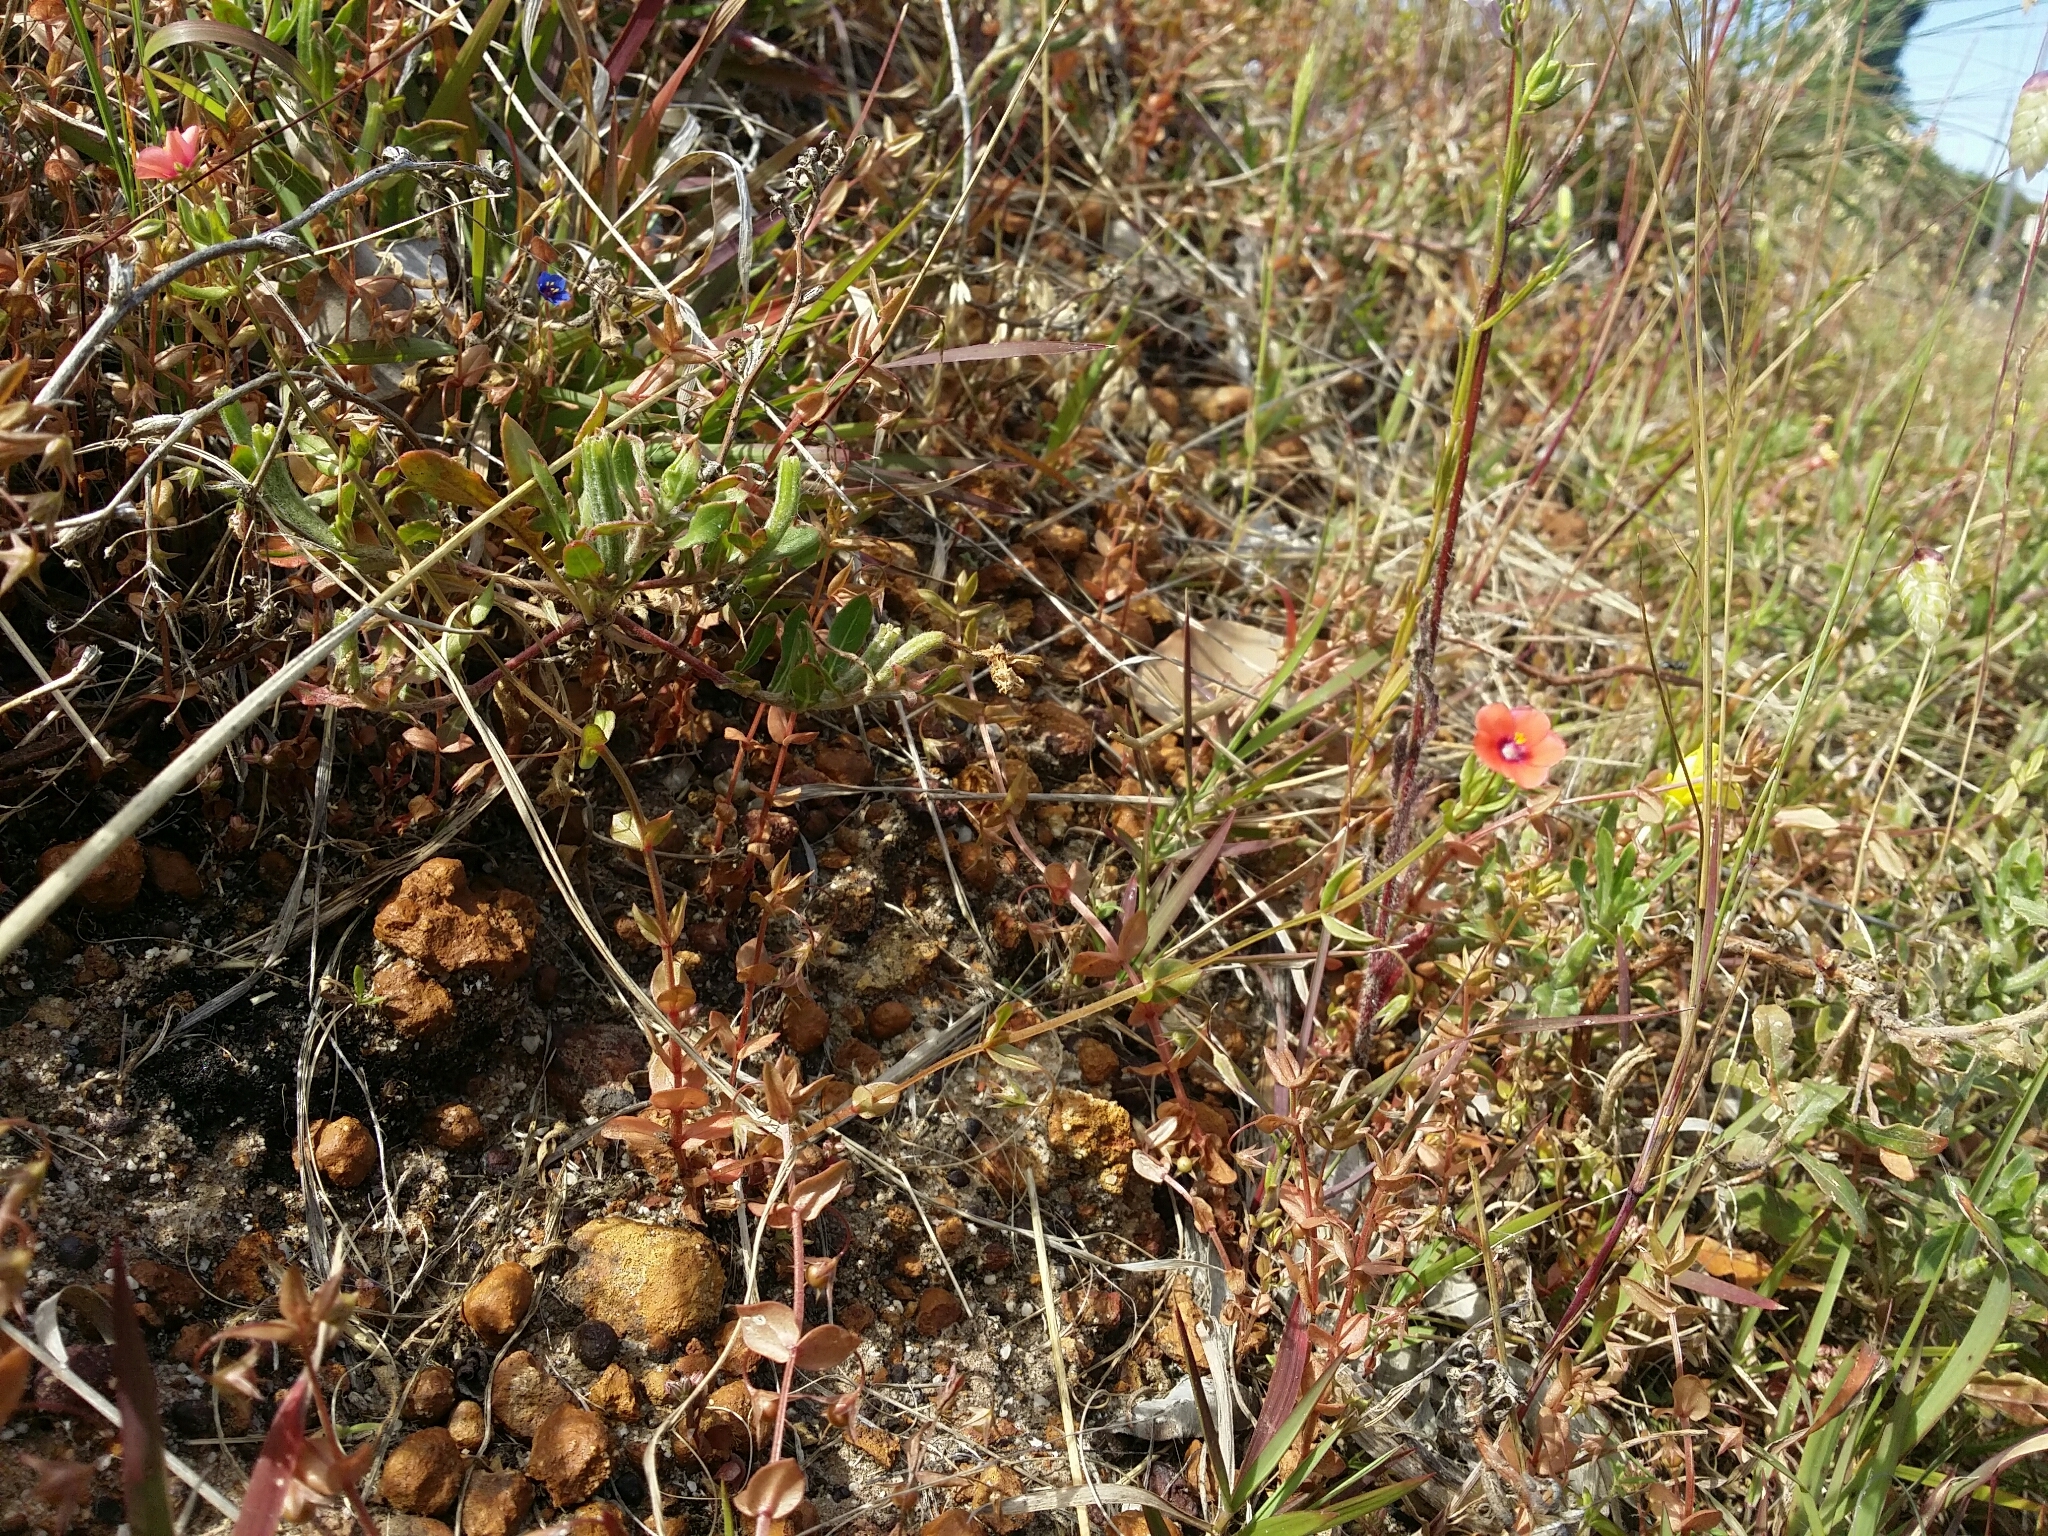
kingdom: Plantae
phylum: Tracheophyta
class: Magnoliopsida
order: Ericales
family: Primulaceae
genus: Lysimachia
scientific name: Lysimachia arvensis
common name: Scarlet pimpernel
